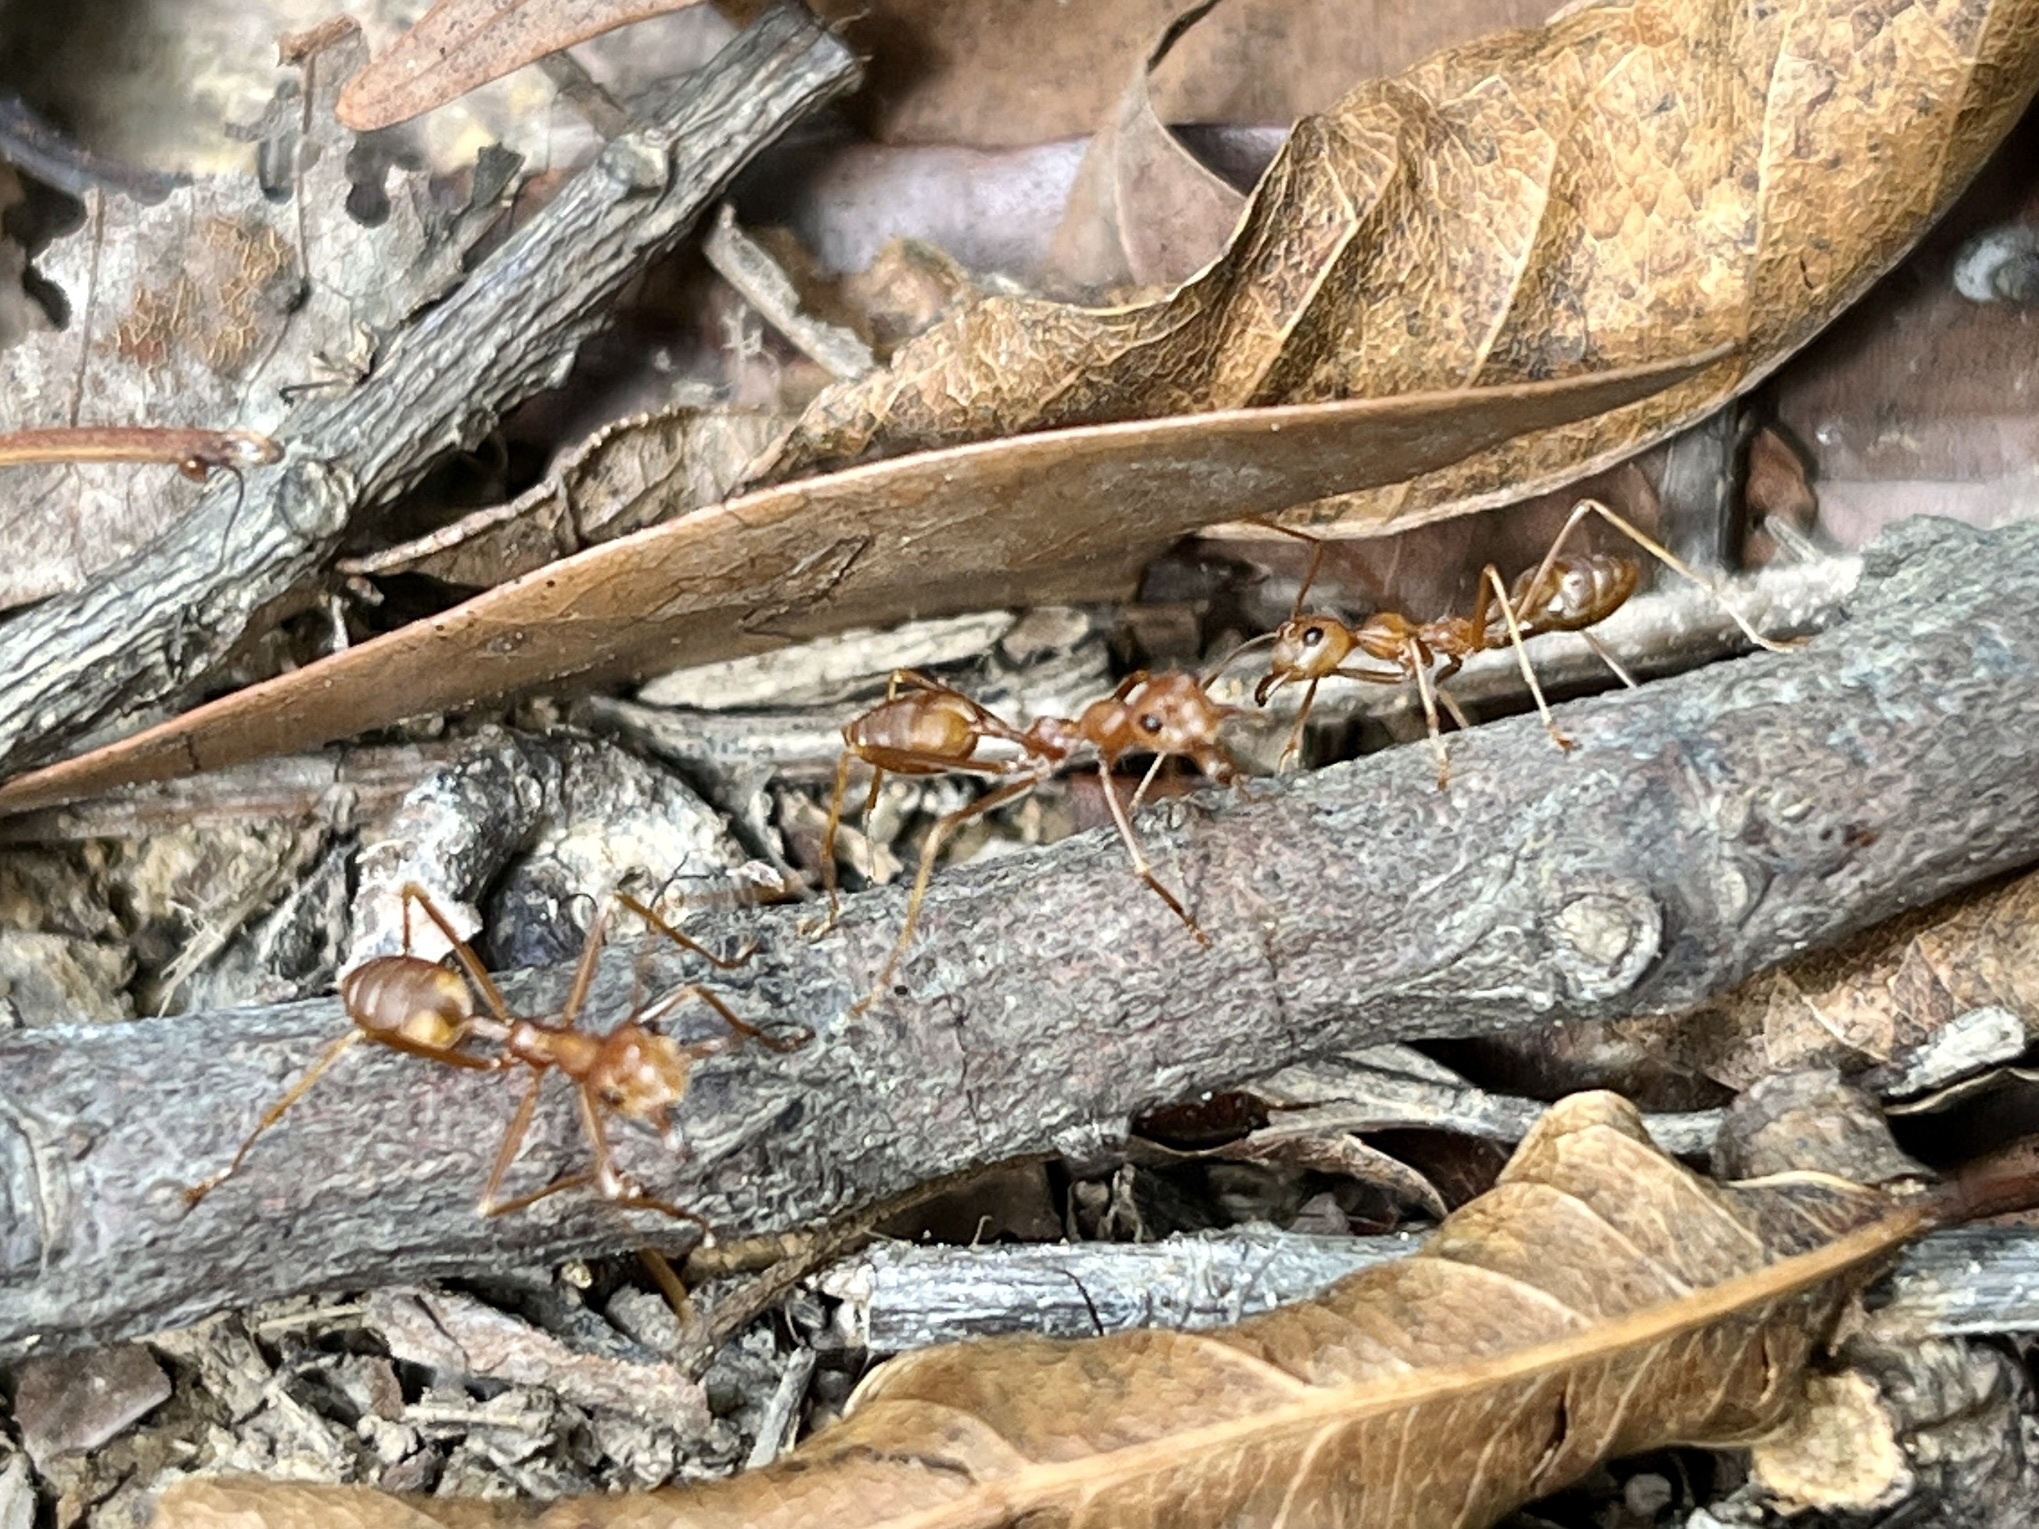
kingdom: Animalia
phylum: Arthropoda
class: Insecta
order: Hymenoptera
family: Formicidae
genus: Oecophylla
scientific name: Oecophylla smaragdina
